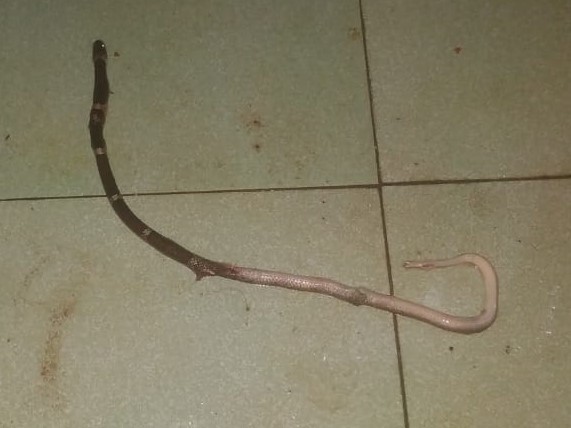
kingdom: Animalia
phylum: Chordata
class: Squamata
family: Colubridae
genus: Lycodon
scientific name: Lycodon aulicus
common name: Common wolf snake
